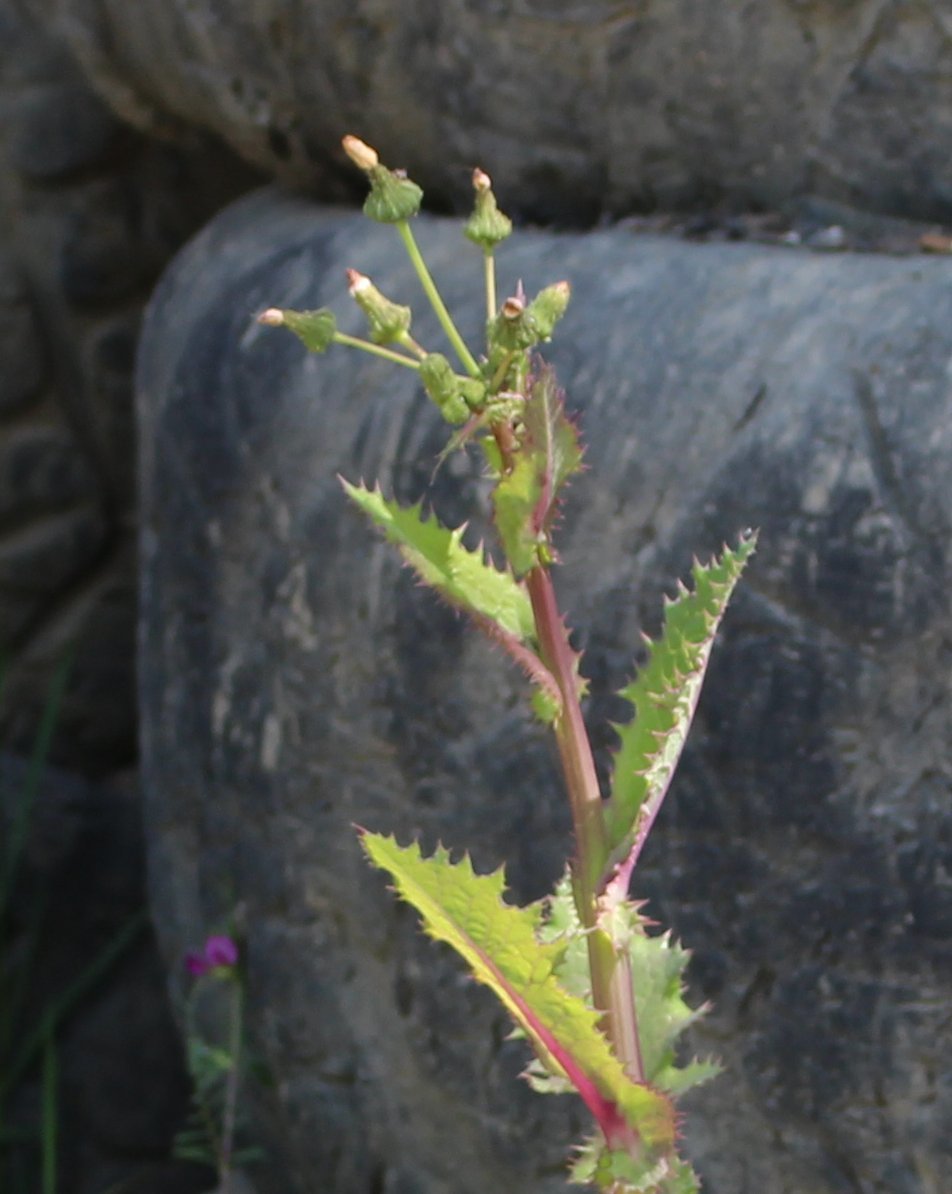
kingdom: Plantae
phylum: Tracheophyta
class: Magnoliopsida
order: Asterales
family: Asteraceae
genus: Sonchus
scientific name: Sonchus asper
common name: Prickly sow-thistle
